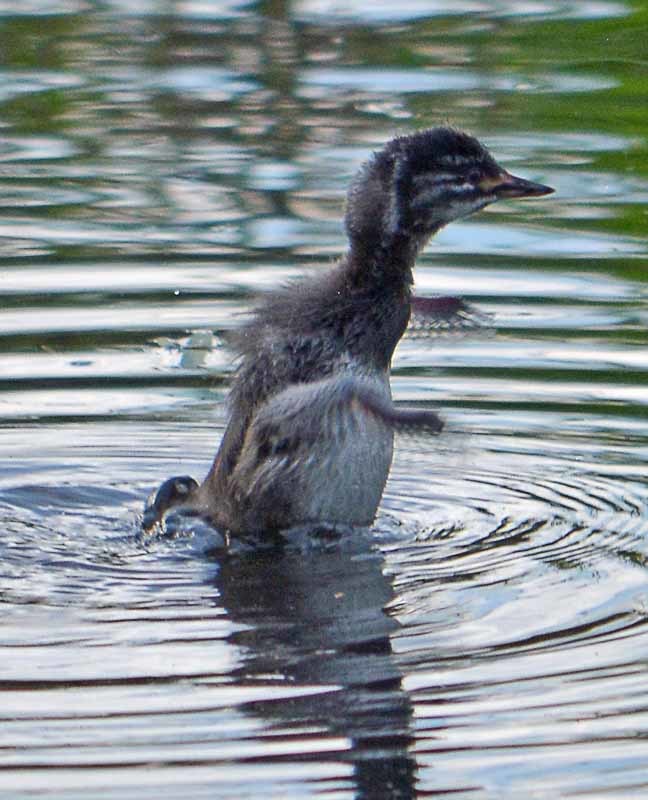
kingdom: Animalia
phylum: Chordata
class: Aves
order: Podicipediformes
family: Podicipedidae
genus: Tachybaptus
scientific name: Tachybaptus dominicus
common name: Least grebe
